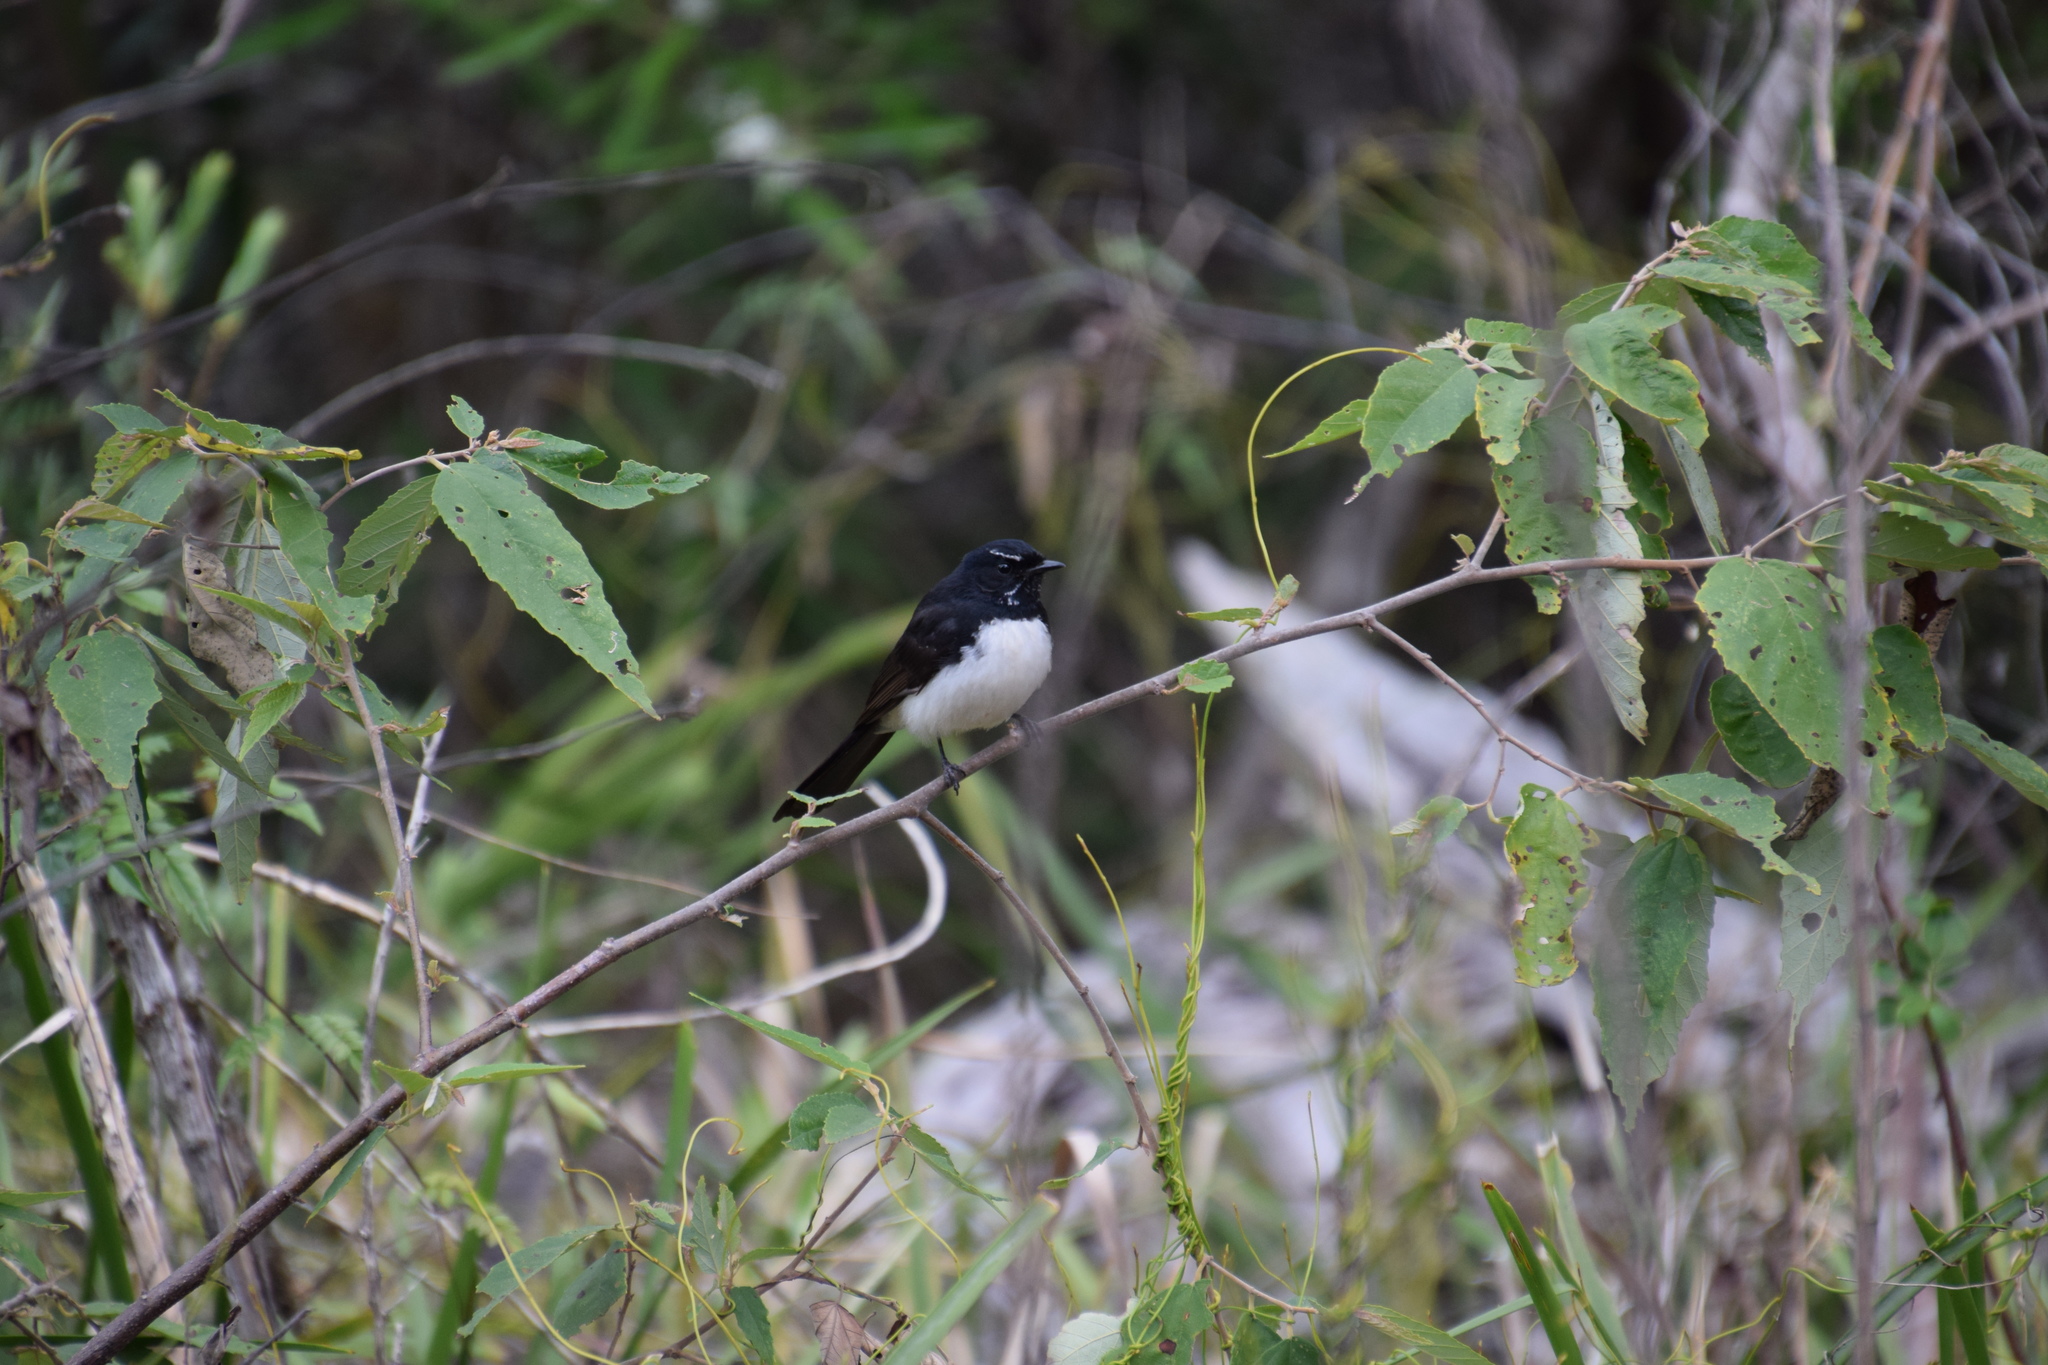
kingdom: Animalia
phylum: Chordata
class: Aves
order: Passeriformes
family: Rhipiduridae
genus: Rhipidura
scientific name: Rhipidura leucophrys
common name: Willie wagtail
